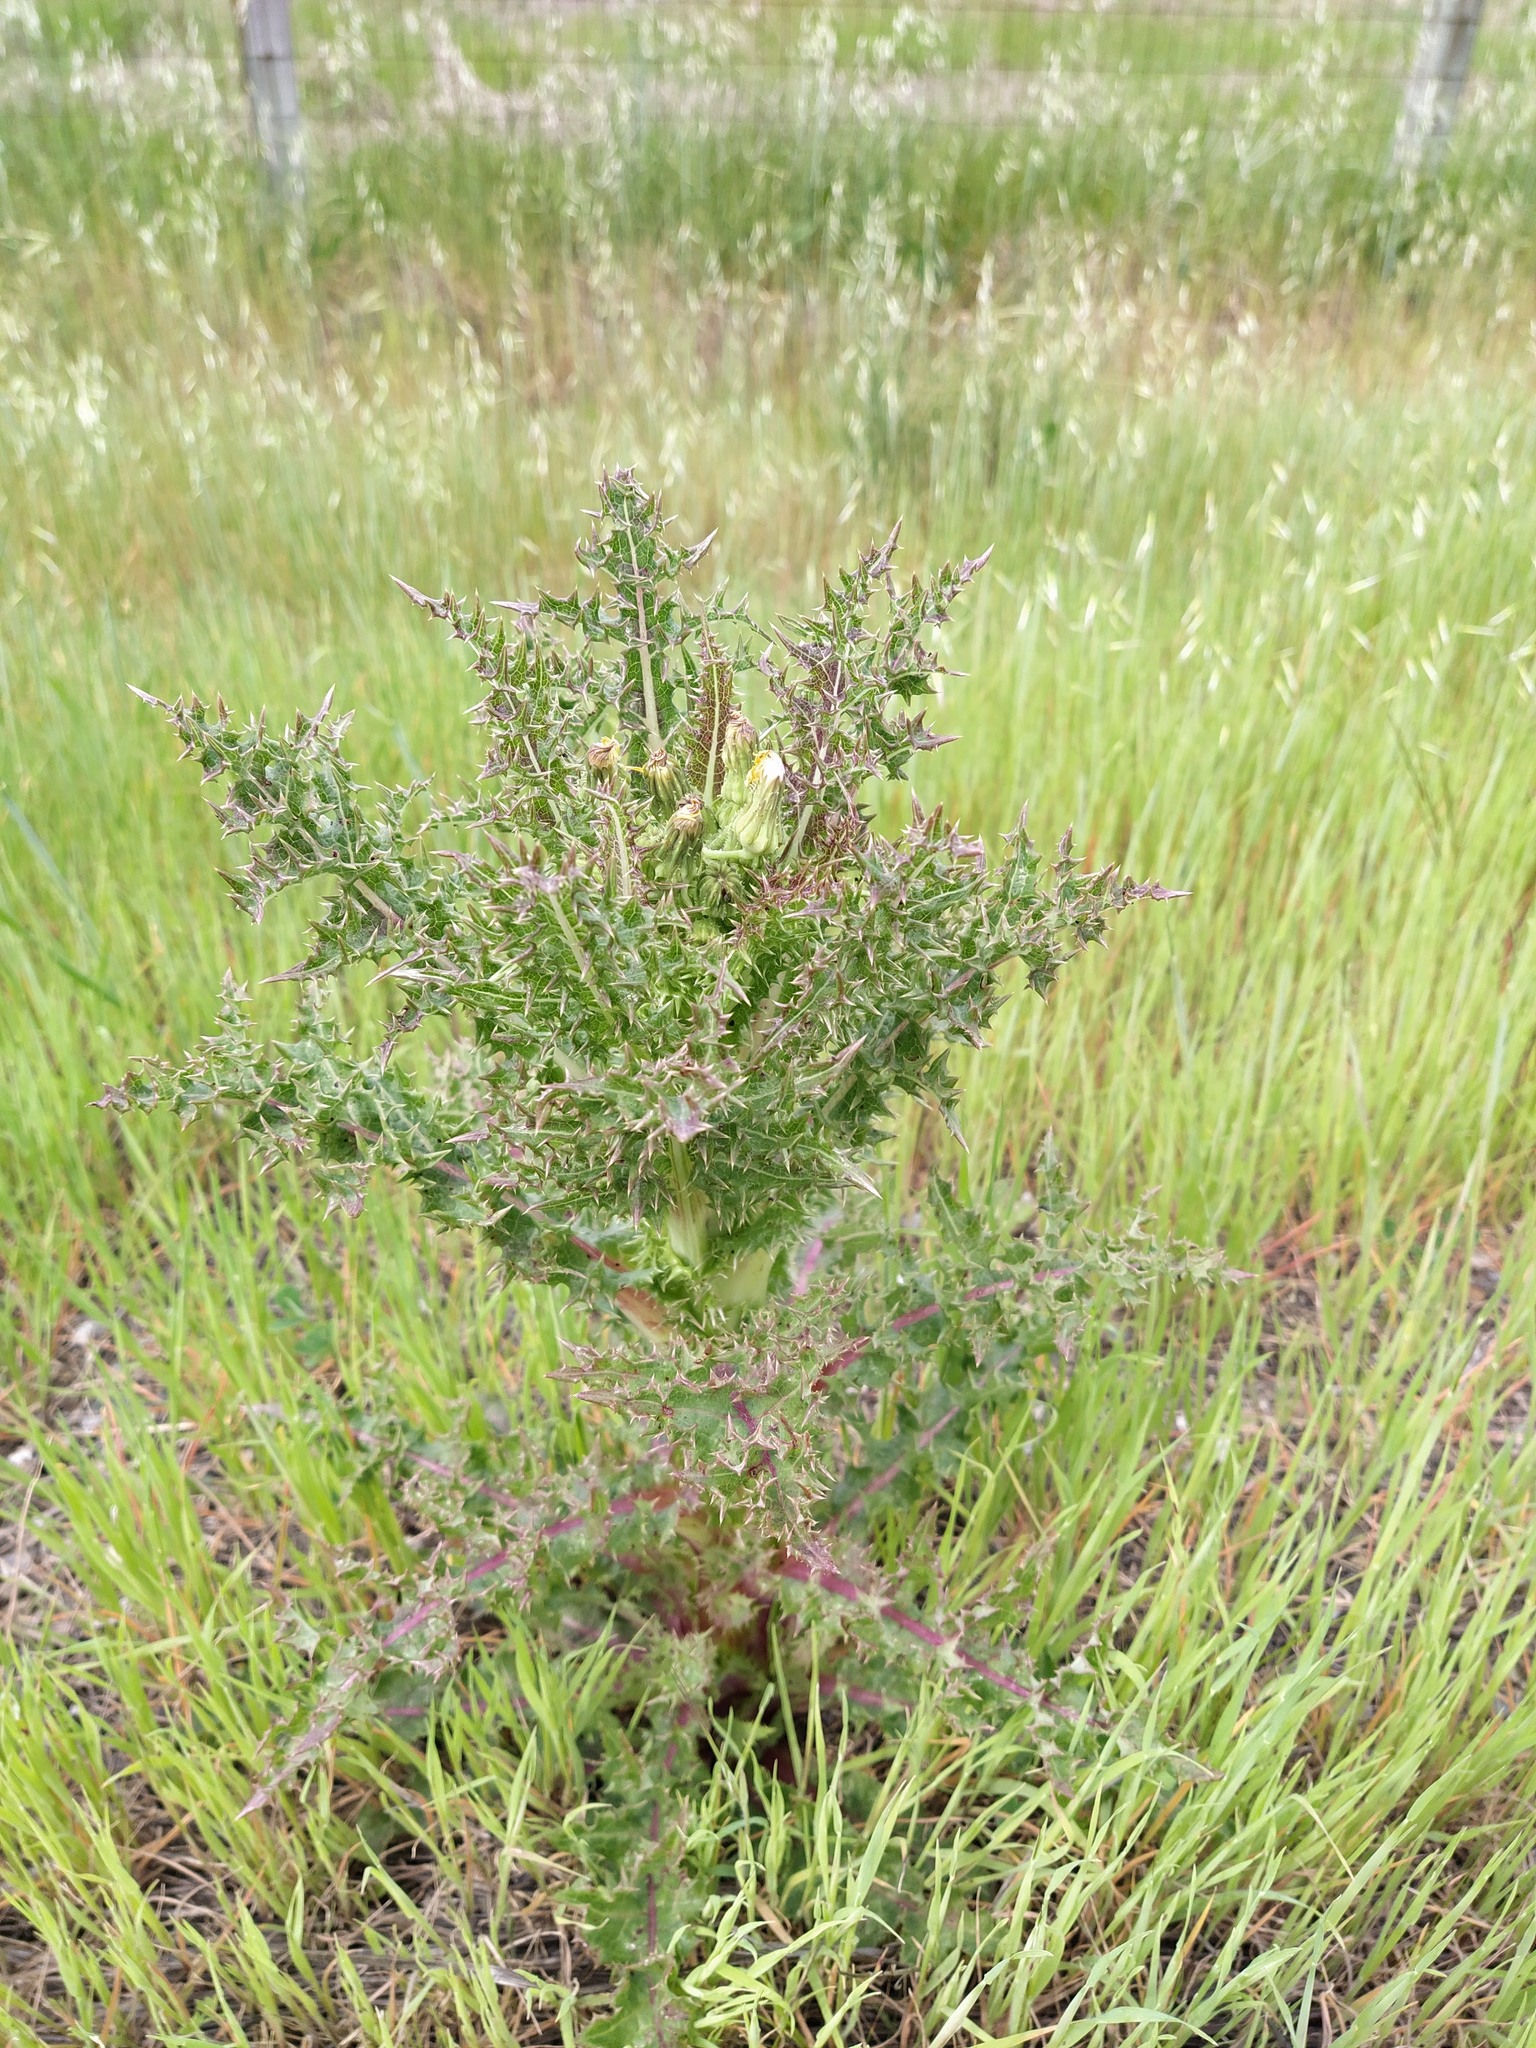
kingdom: Plantae
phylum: Tracheophyta
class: Magnoliopsida
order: Asterales
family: Asteraceae
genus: Sonchus
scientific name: Sonchus asper
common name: Prickly sow-thistle
